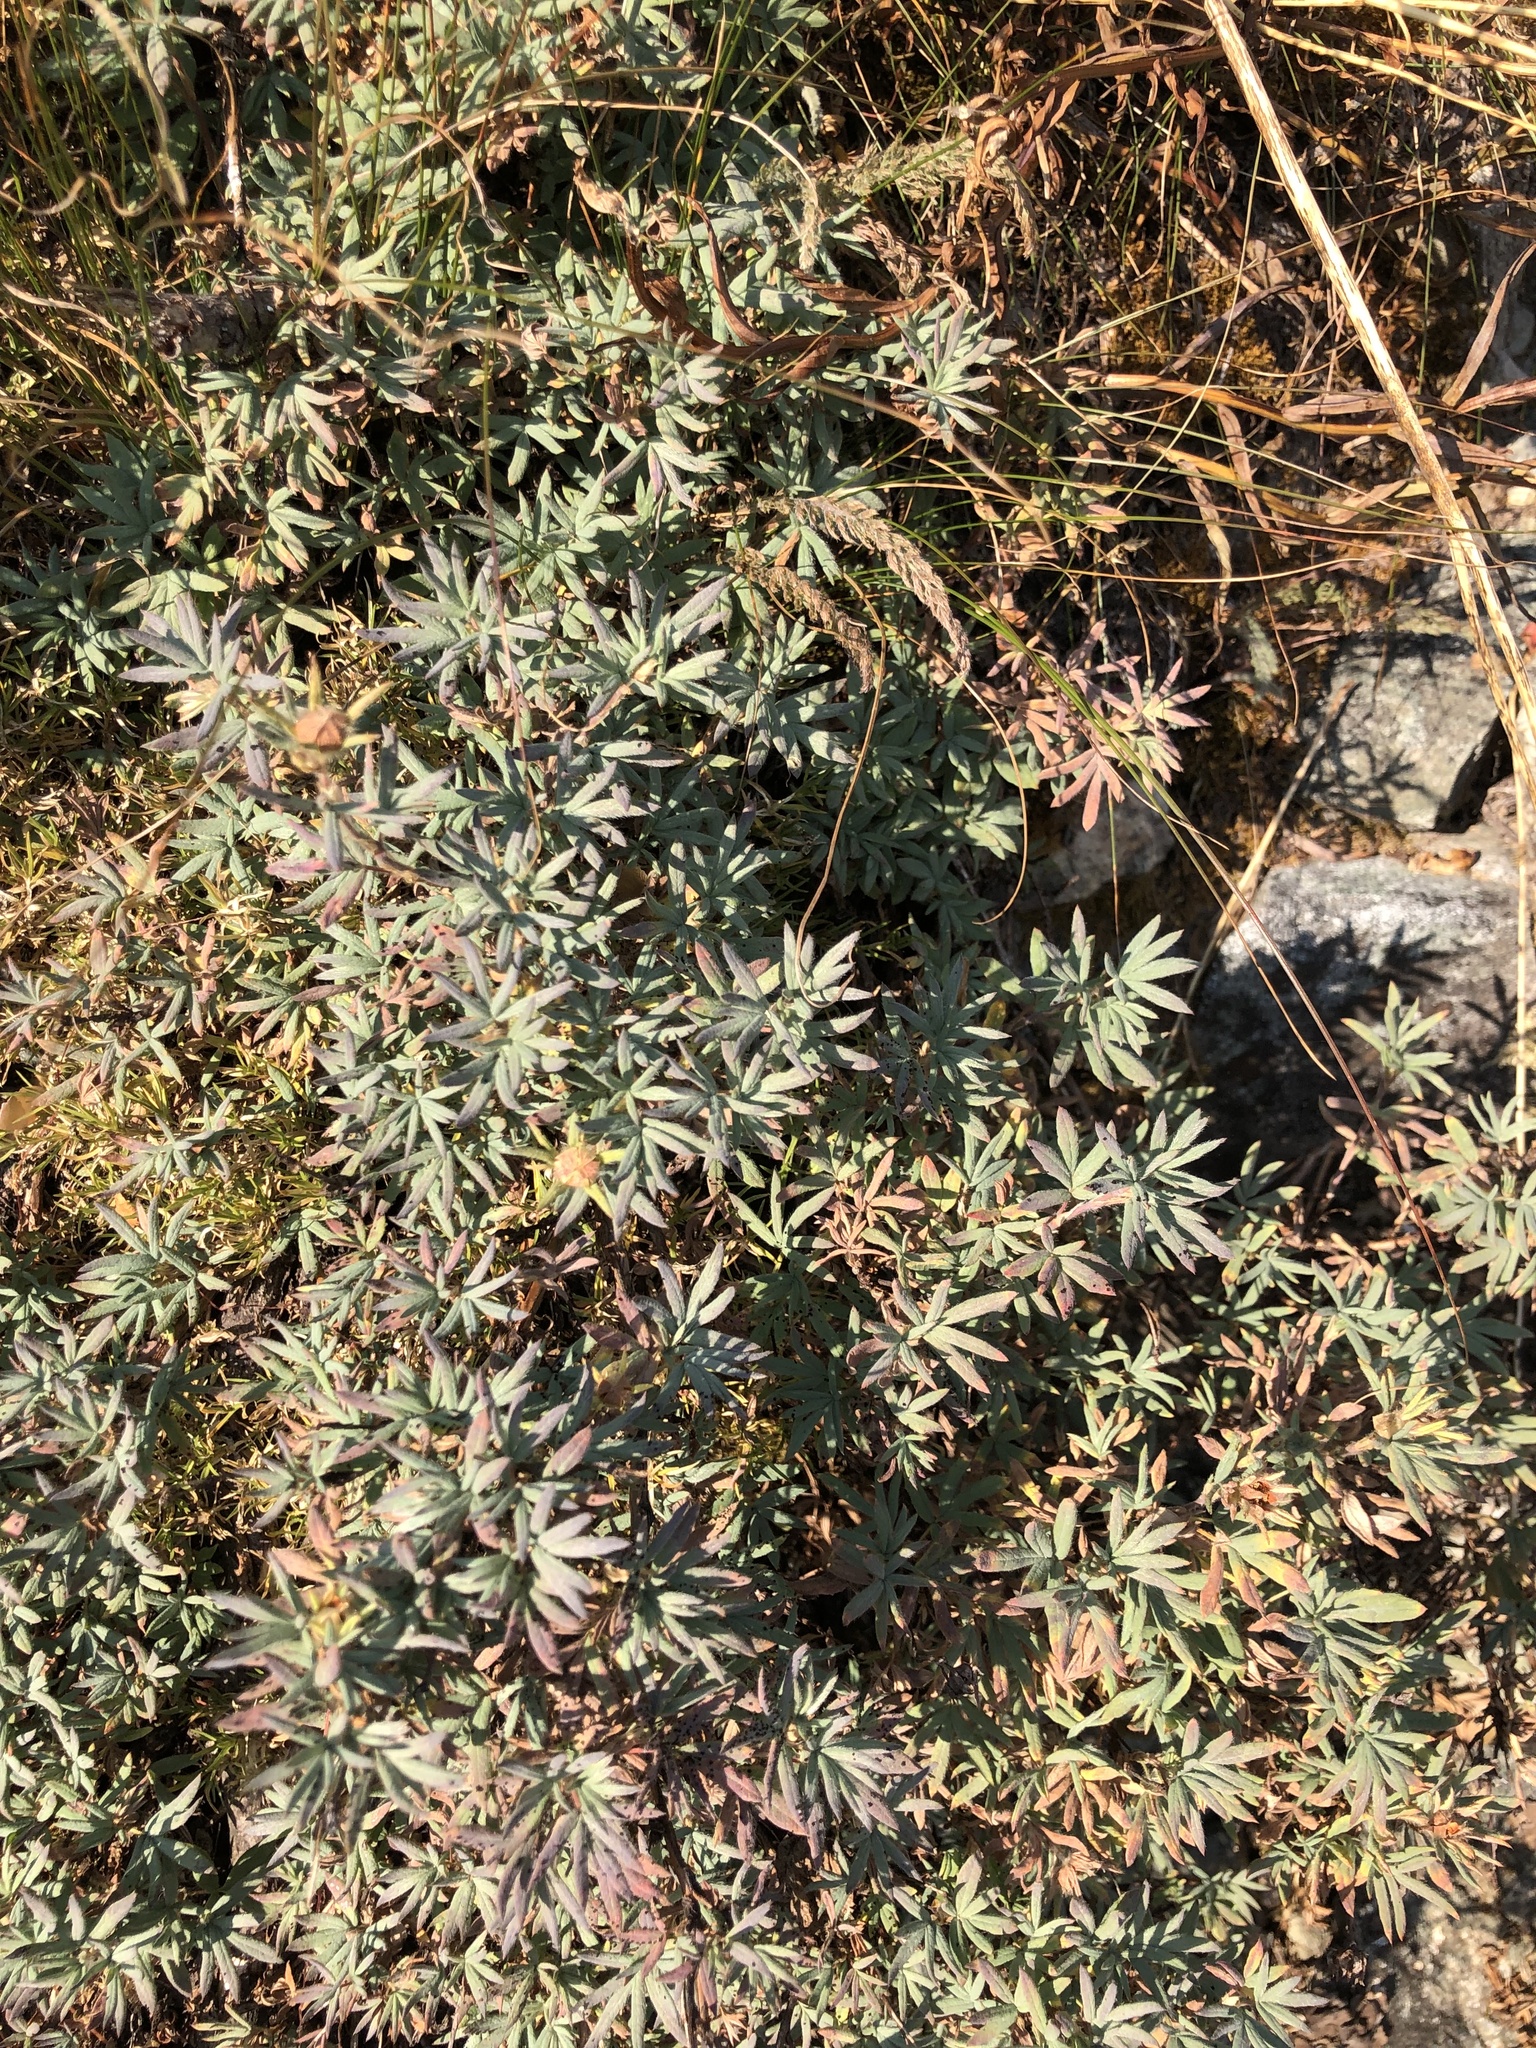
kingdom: Plantae
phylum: Tracheophyta
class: Magnoliopsida
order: Rosales
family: Rosaceae
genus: Dasiphora
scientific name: Dasiphora fruticosa
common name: Shrubby cinquefoil
